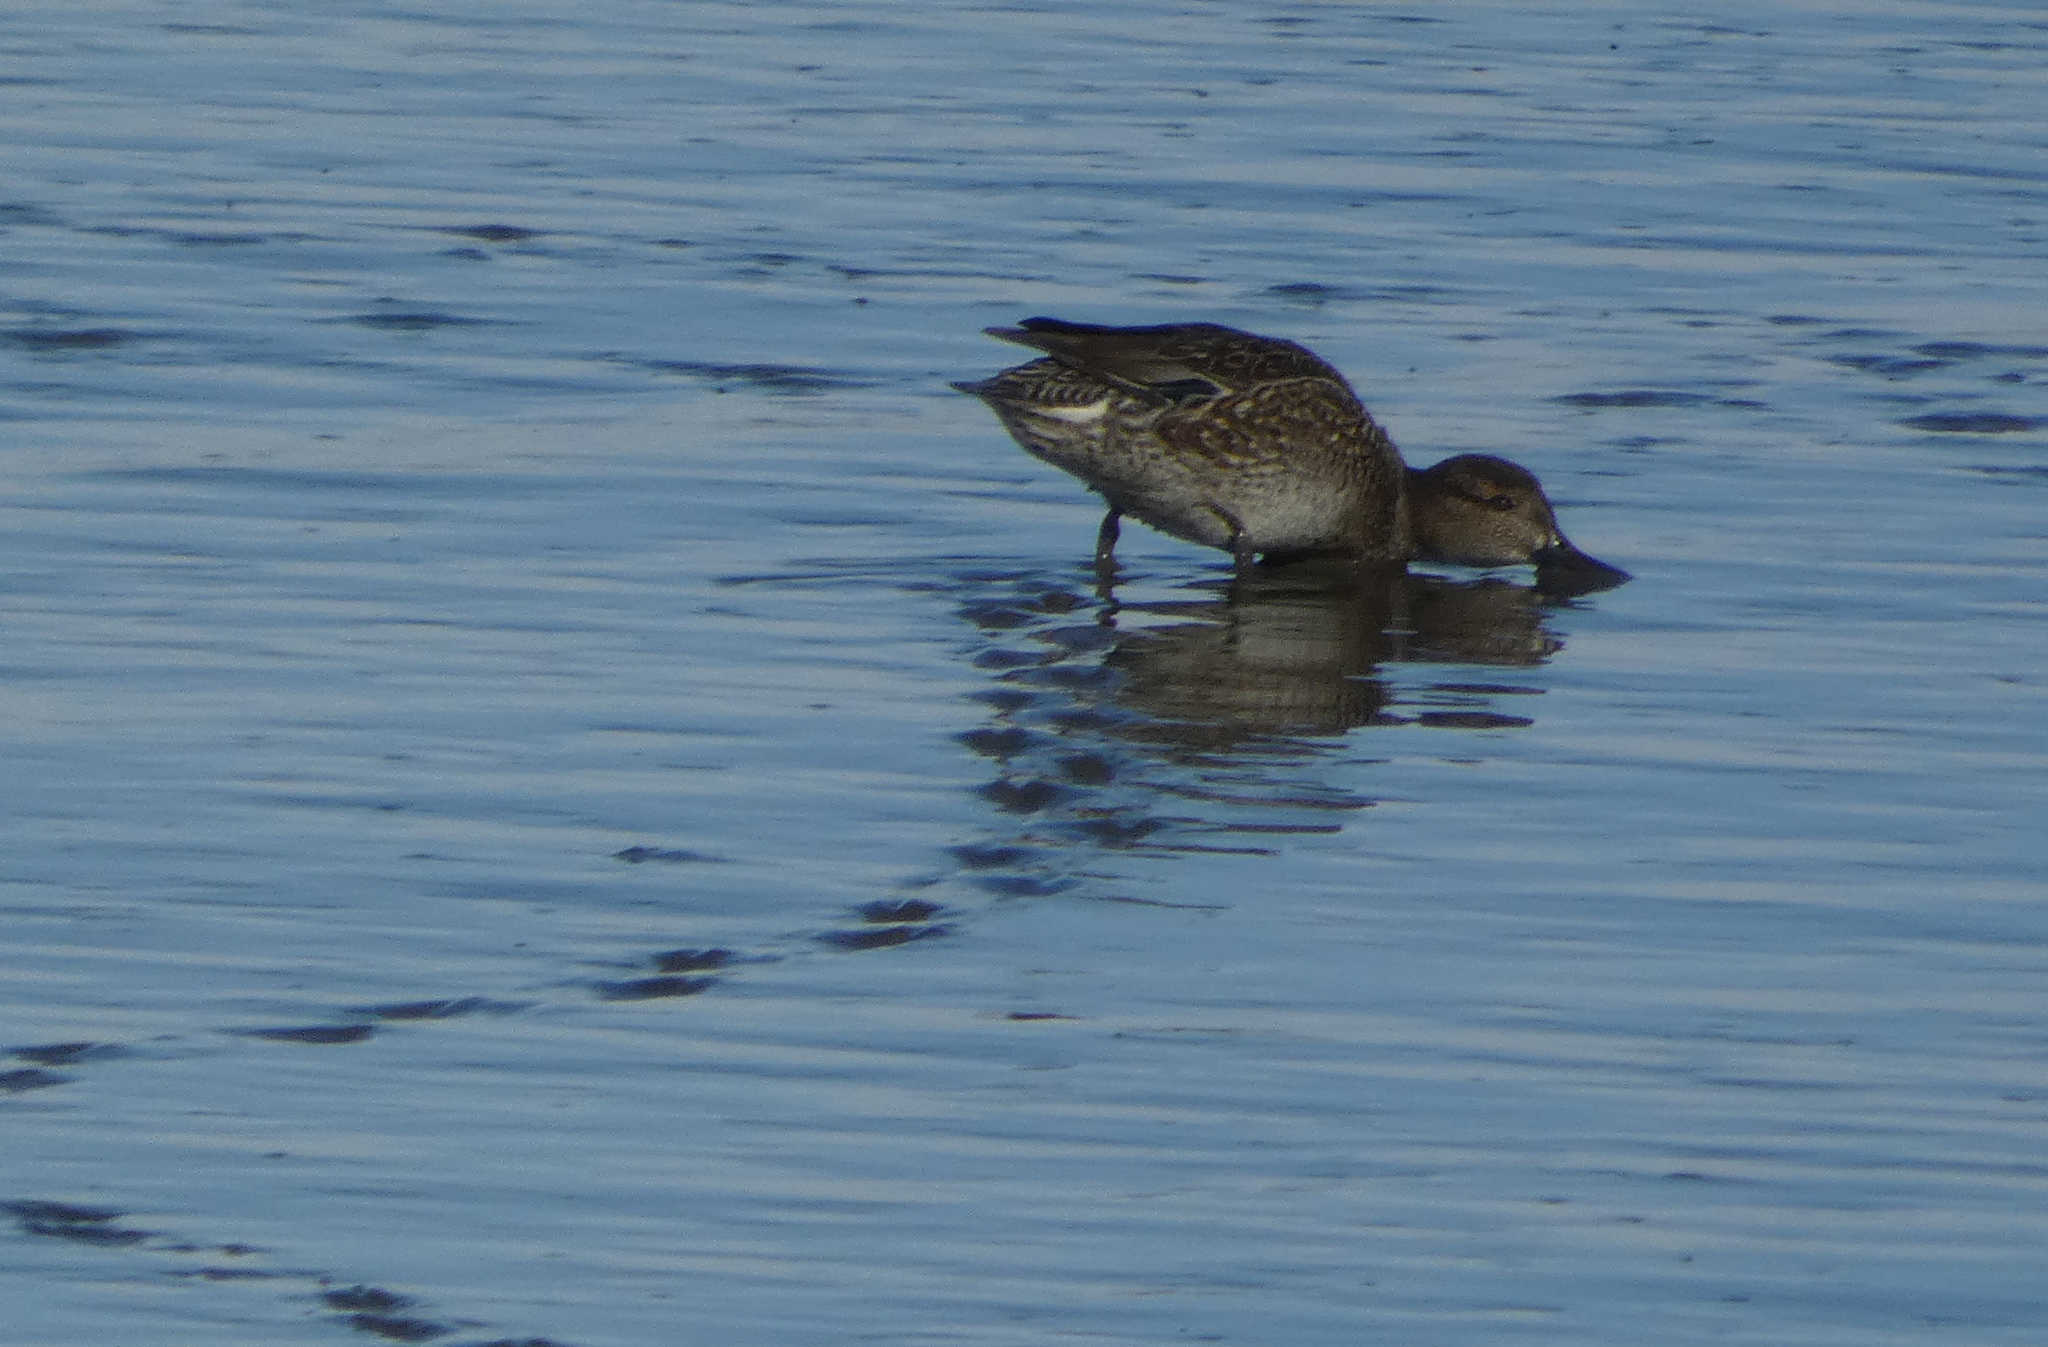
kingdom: Animalia
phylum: Chordata
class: Aves
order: Anseriformes
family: Anatidae
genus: Anas
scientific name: Anas crecca
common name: Eurasian teal
